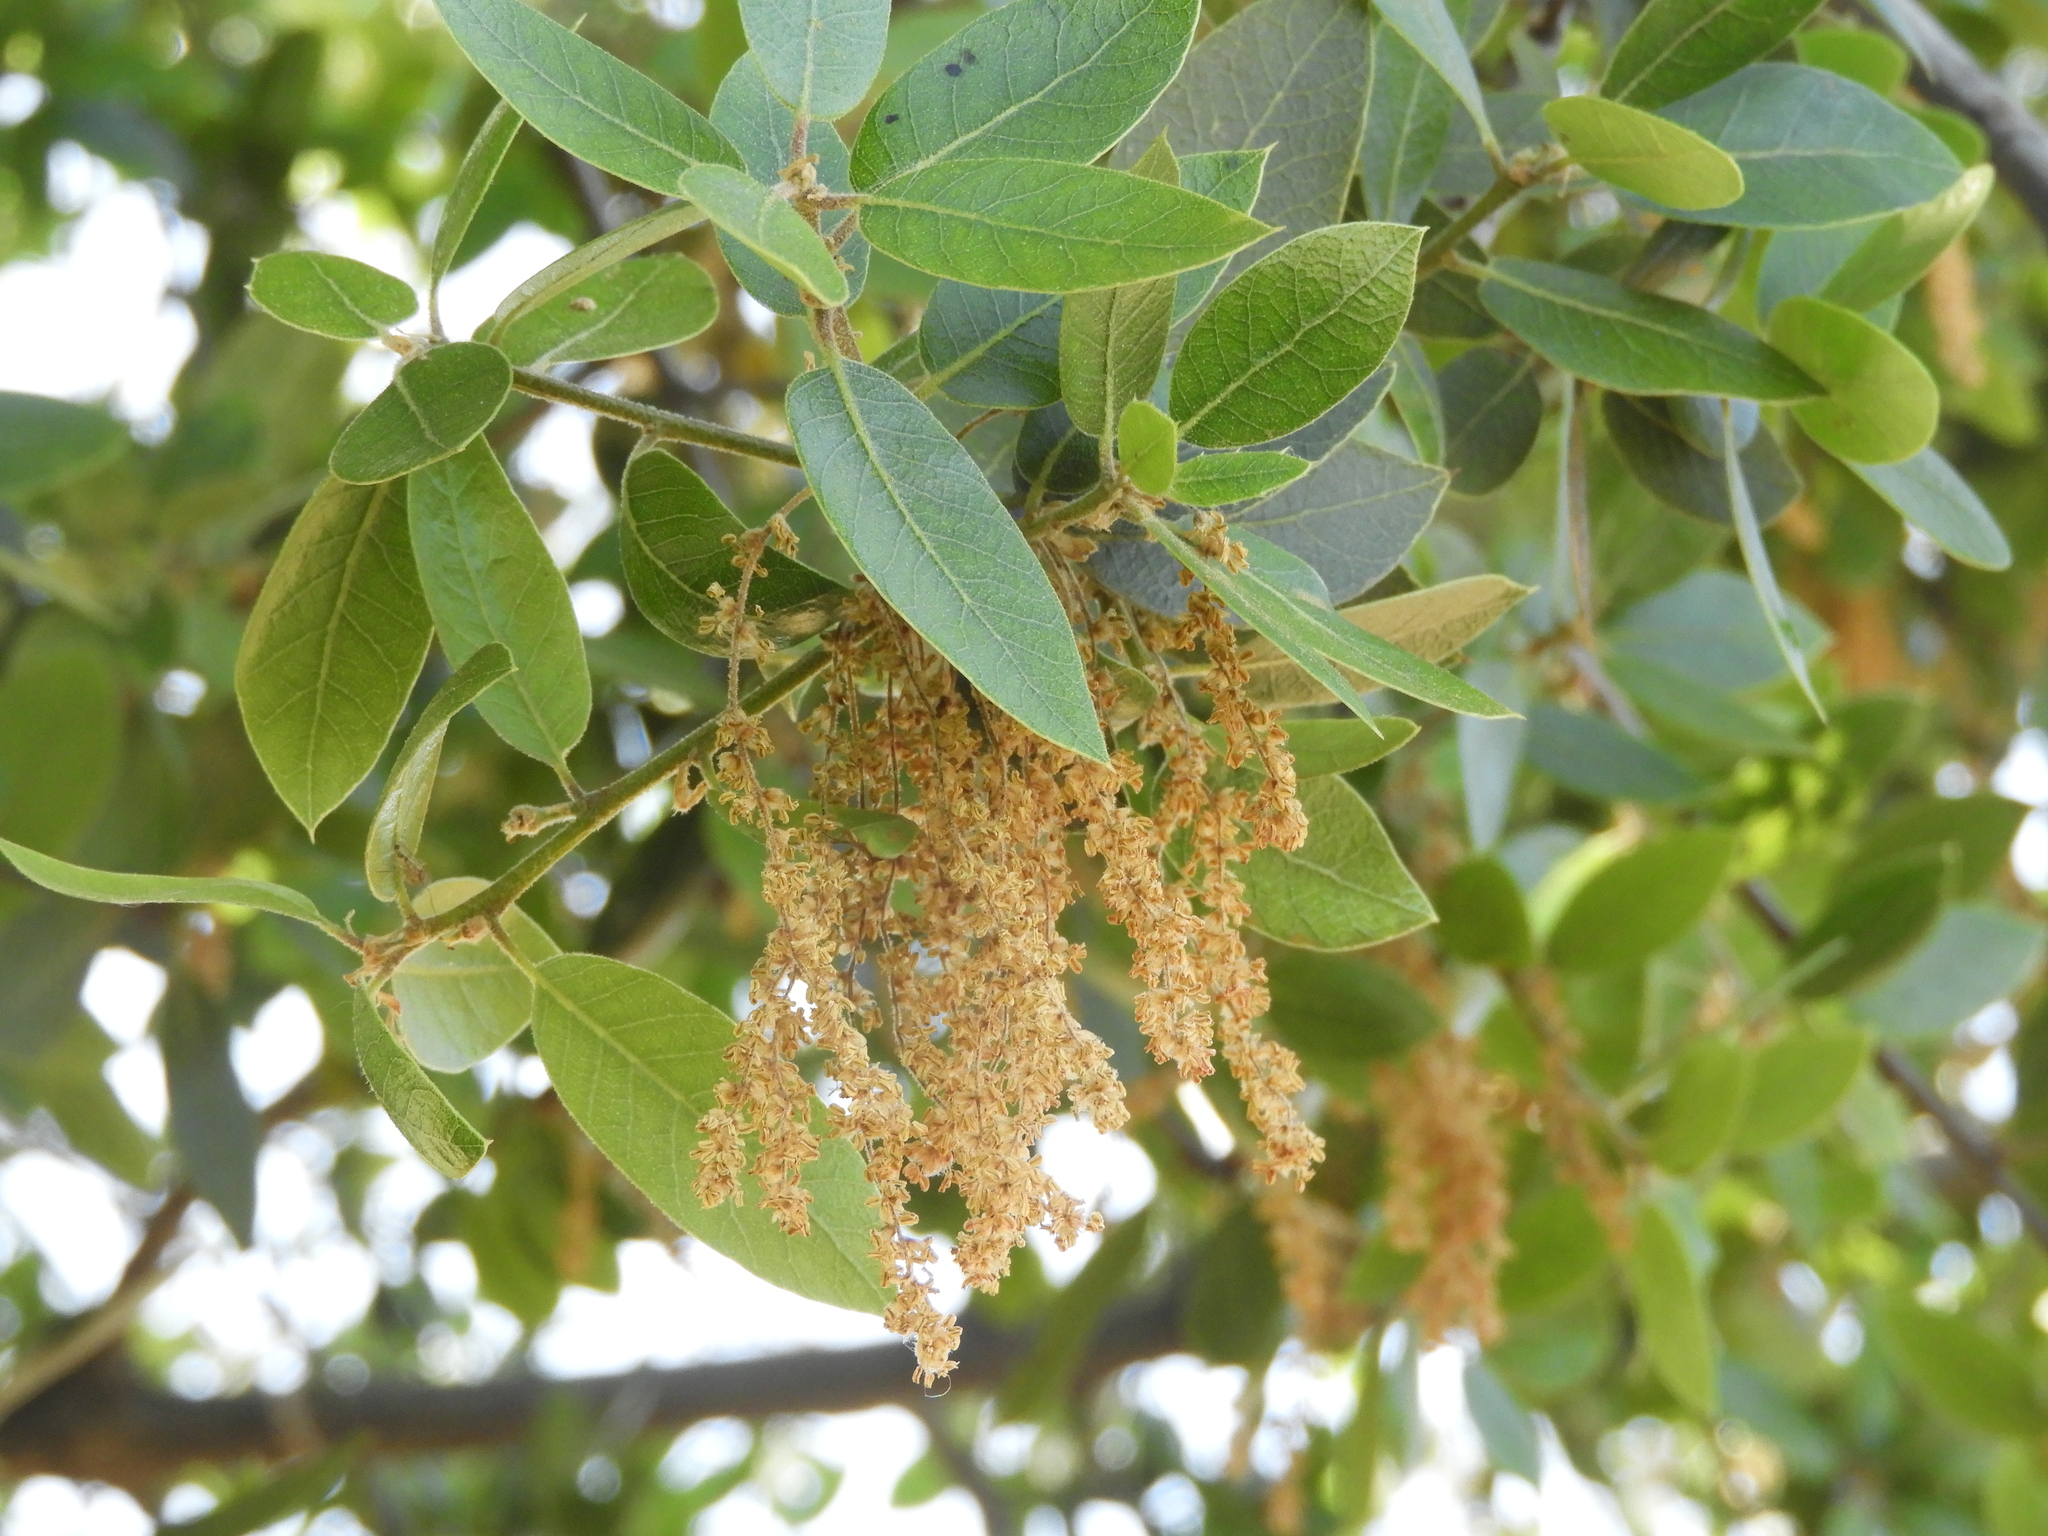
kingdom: Plantae
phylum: Tracheophyta
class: Magnoliopsida
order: Fagales
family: Fagaceae
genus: Quercus
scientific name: Quercus wislizeni
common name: Interior live oak
